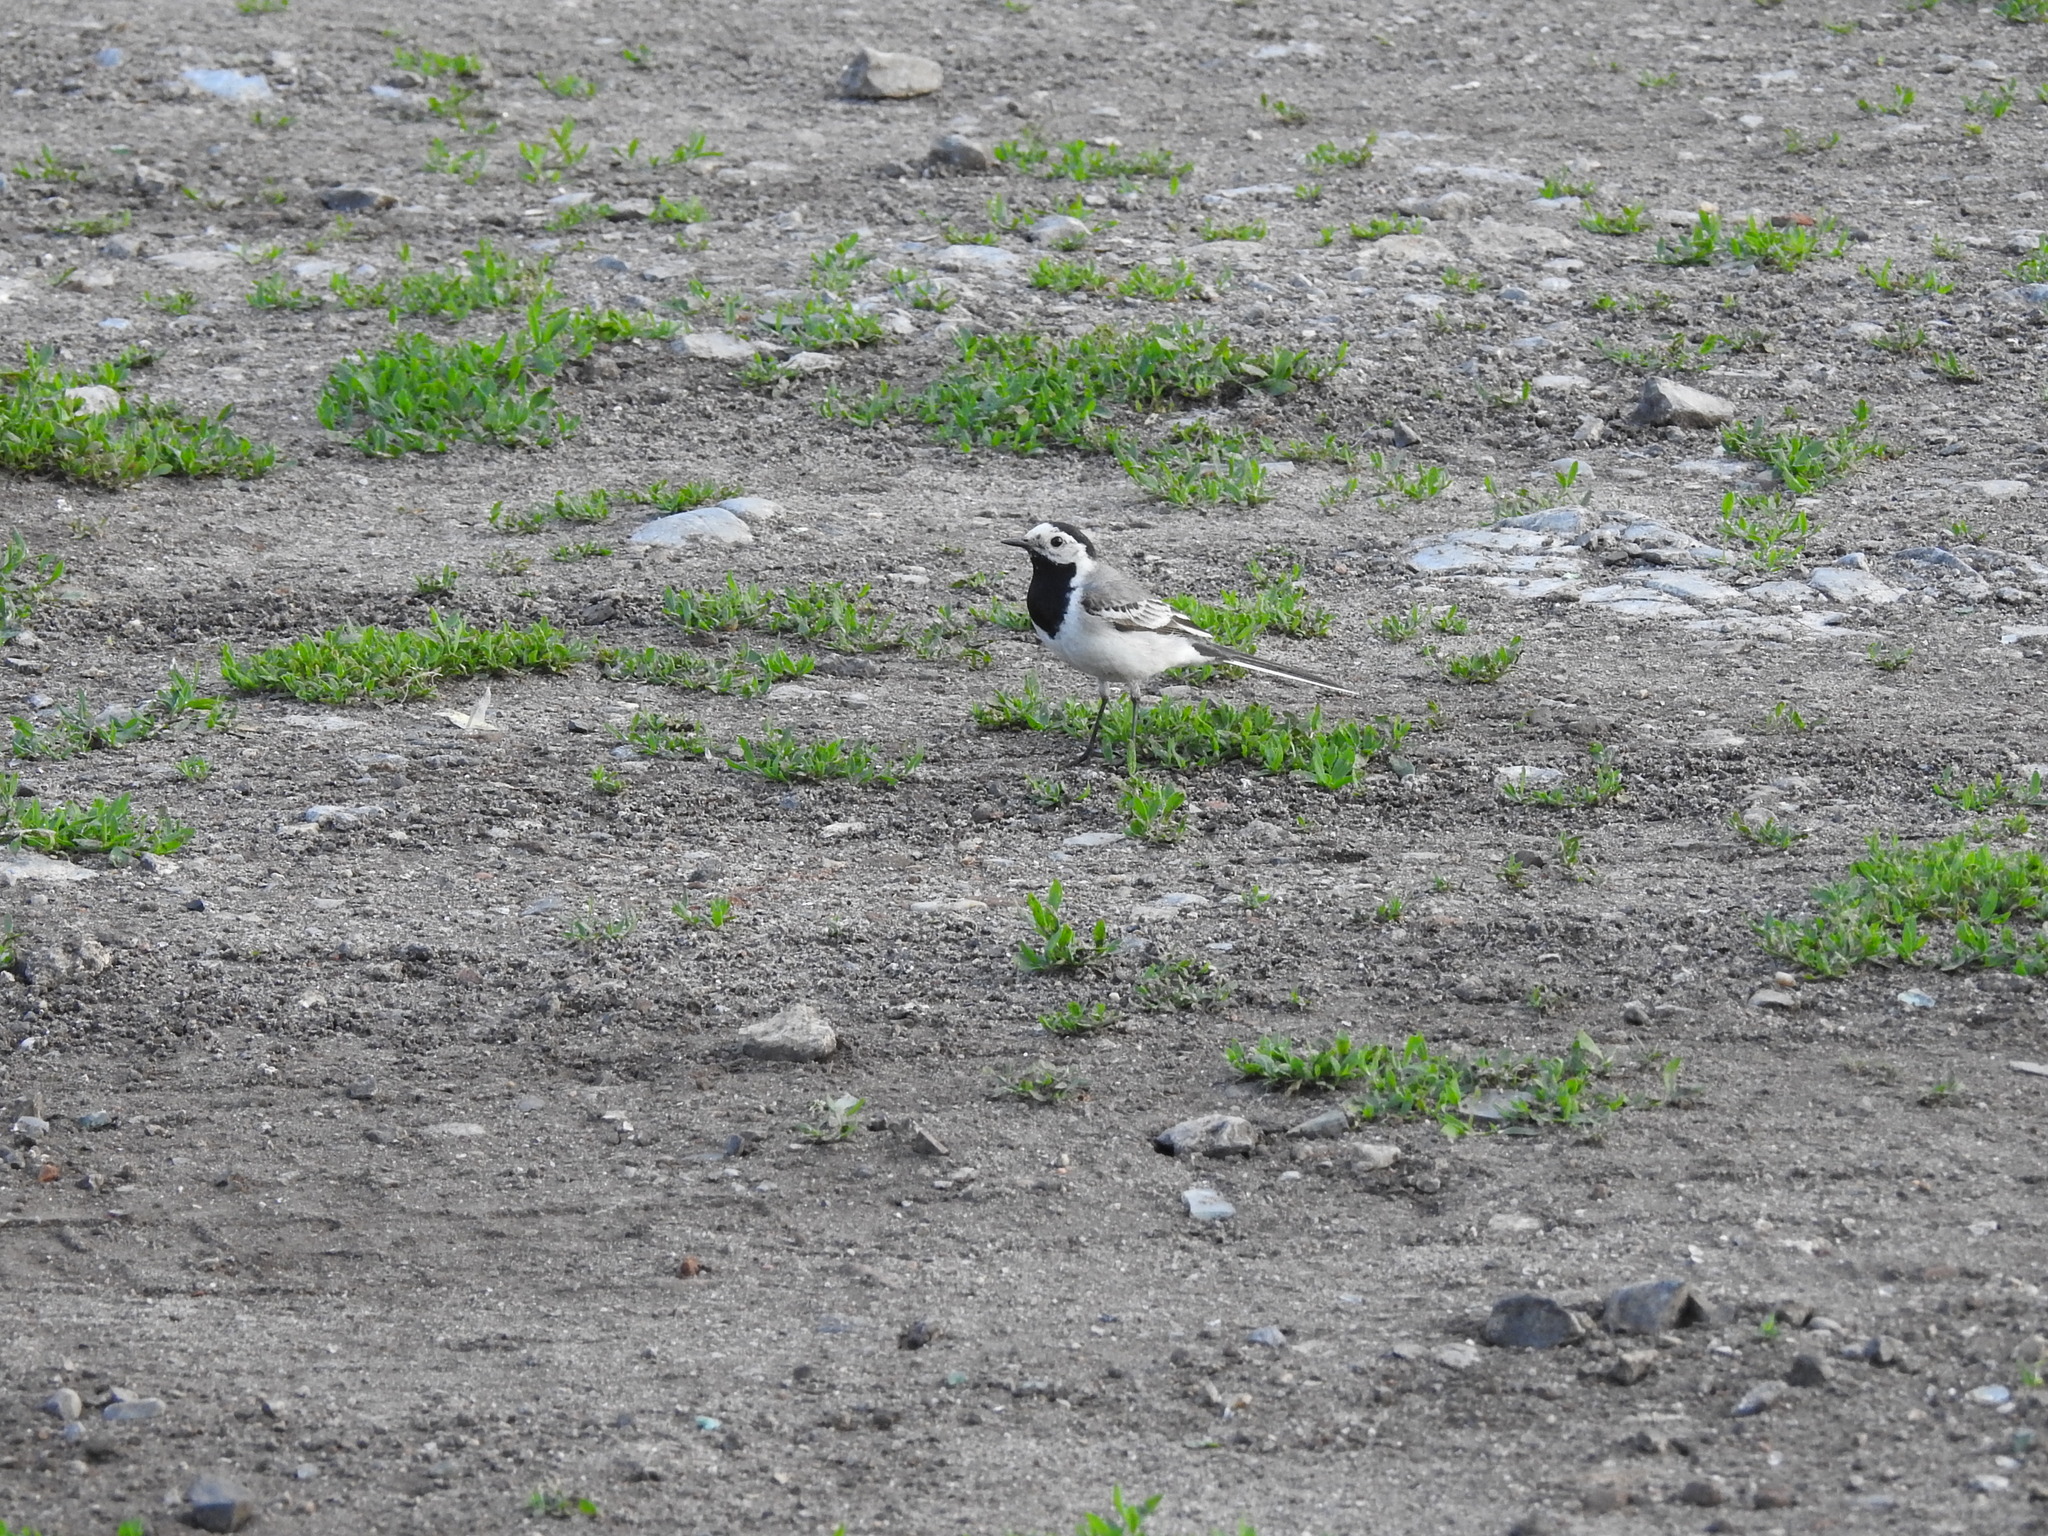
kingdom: Animalia
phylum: Chordata
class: Aves
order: Passeriformes
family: Motacillidae
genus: Motacilla
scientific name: Motacilla alba
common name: White wagtail
